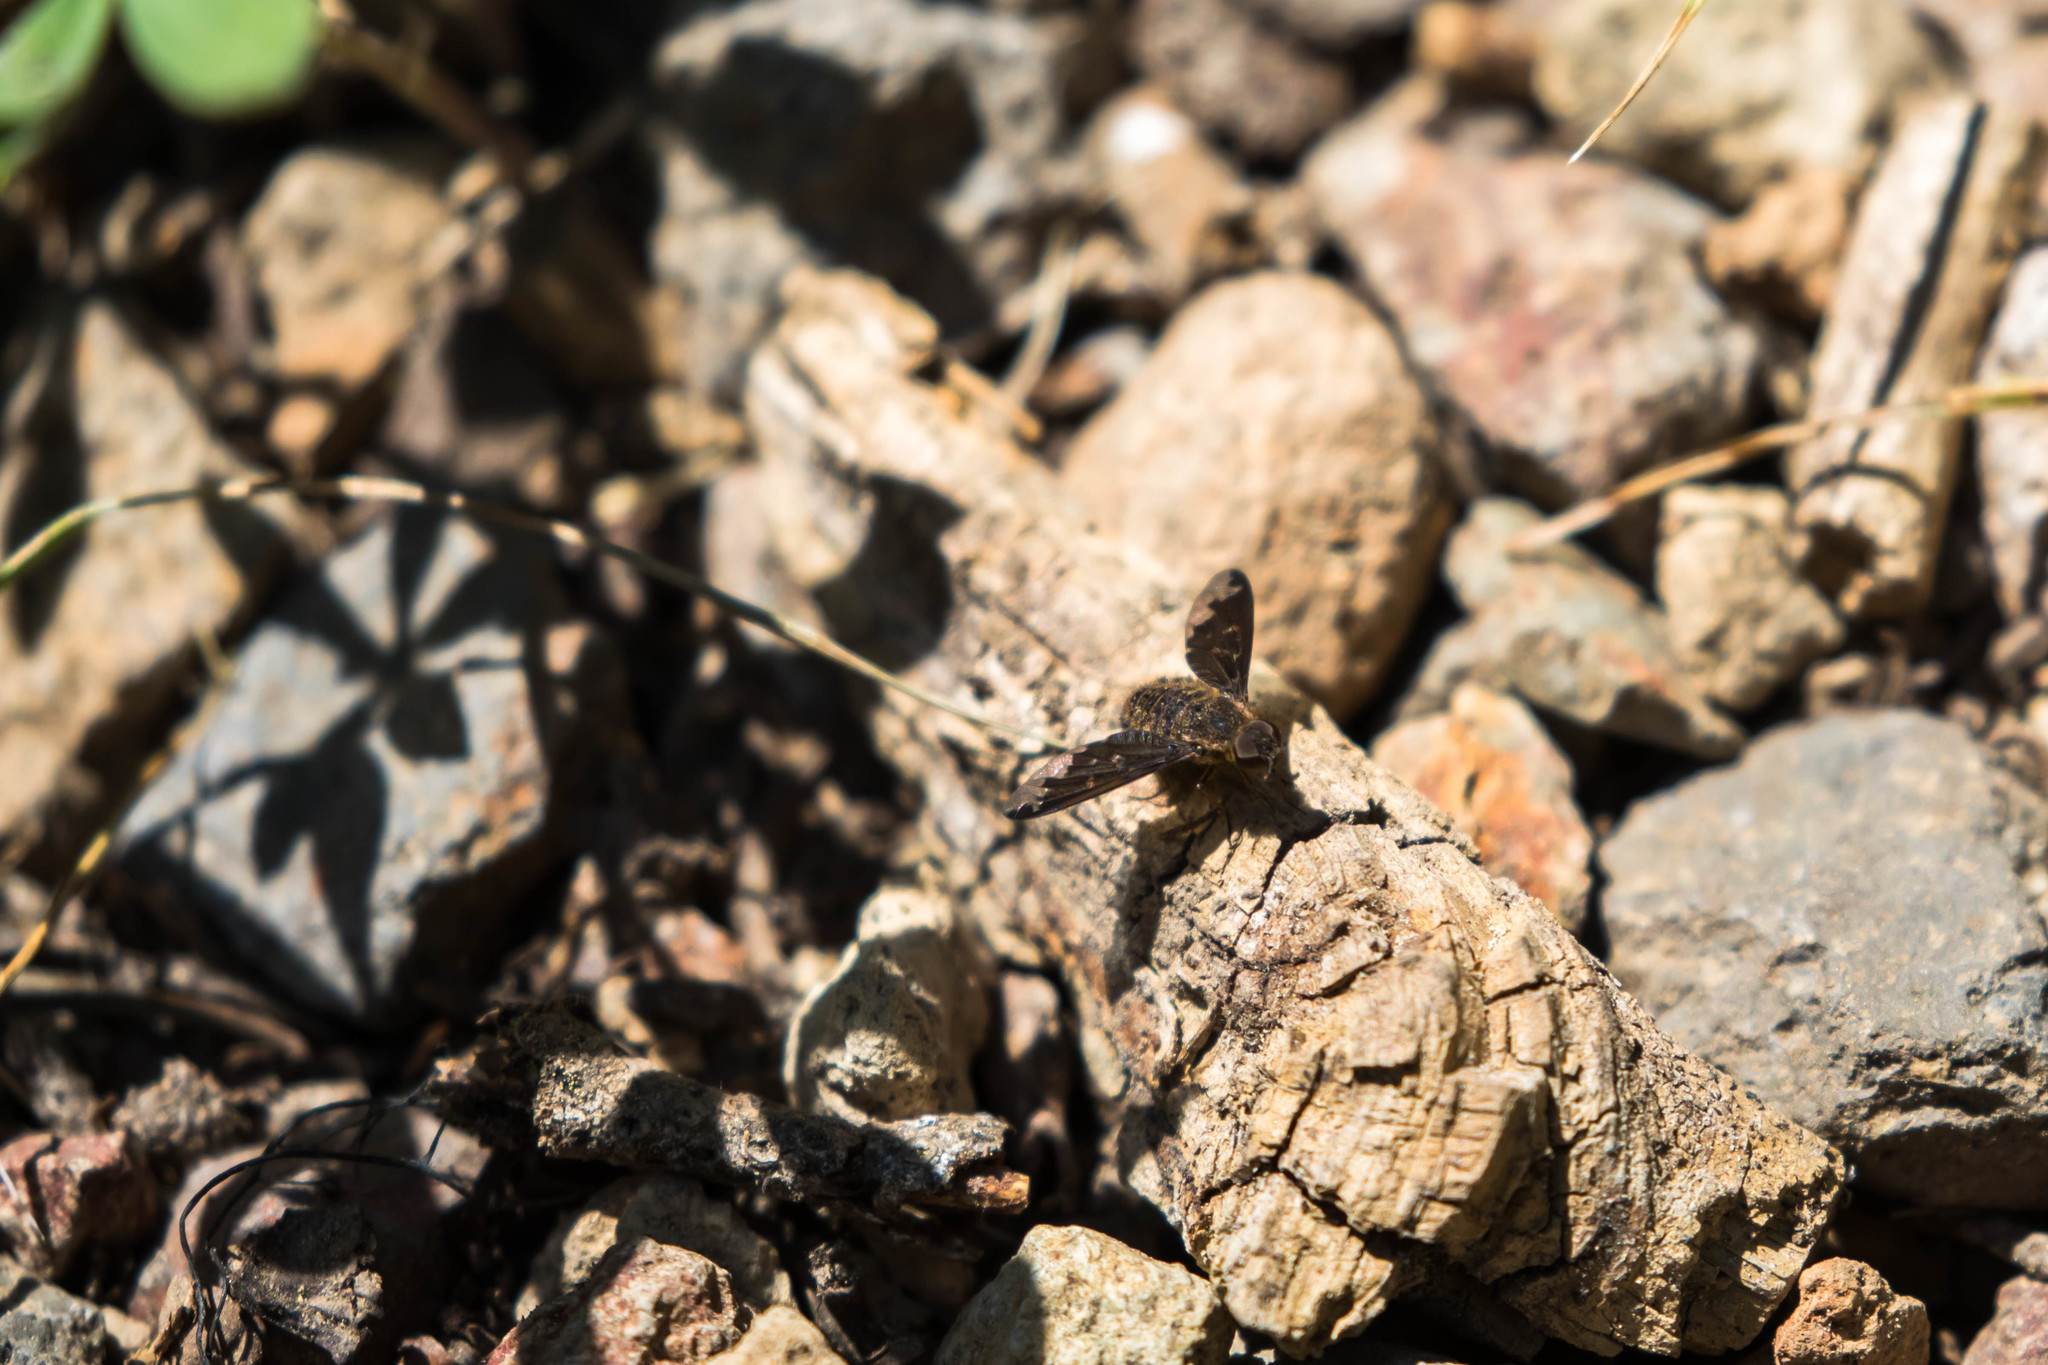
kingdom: Animalia
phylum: Arthropoda
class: Insecta
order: Diptera
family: Bombyliidae
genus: Hemipenthes
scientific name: Hemipenthes sinuosus
